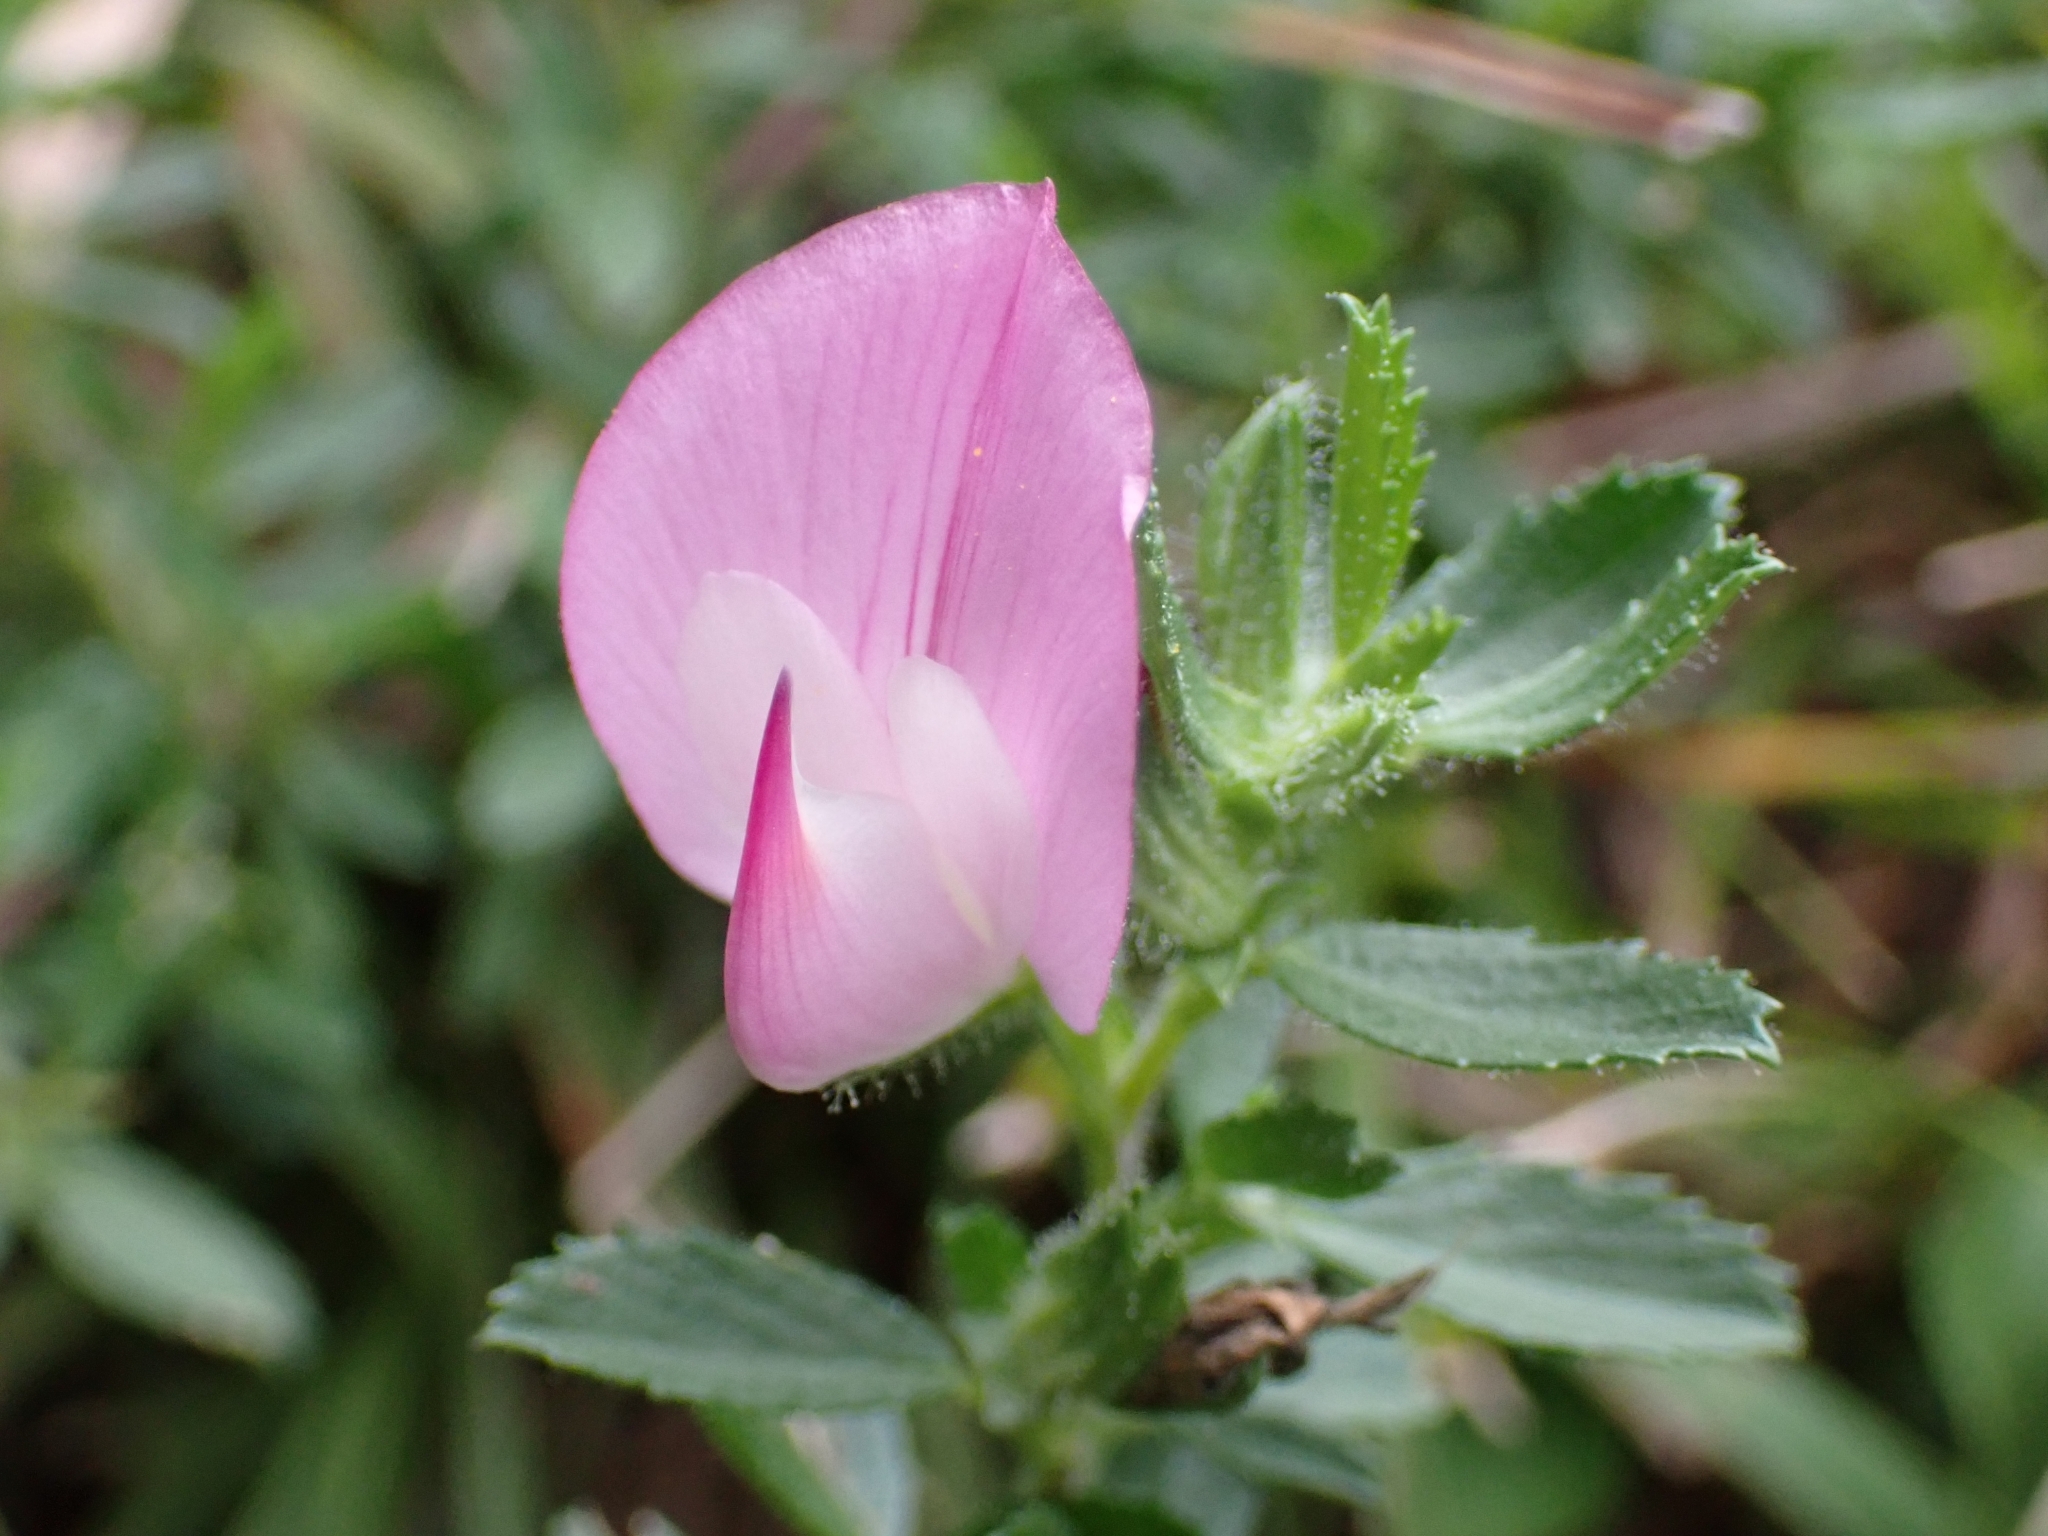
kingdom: Plantae
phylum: Tracheophyta
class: Magnoliopsida
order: Fabales
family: Fabaceae
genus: Ononis
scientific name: Ononis spinosa
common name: Spiny restharrow
